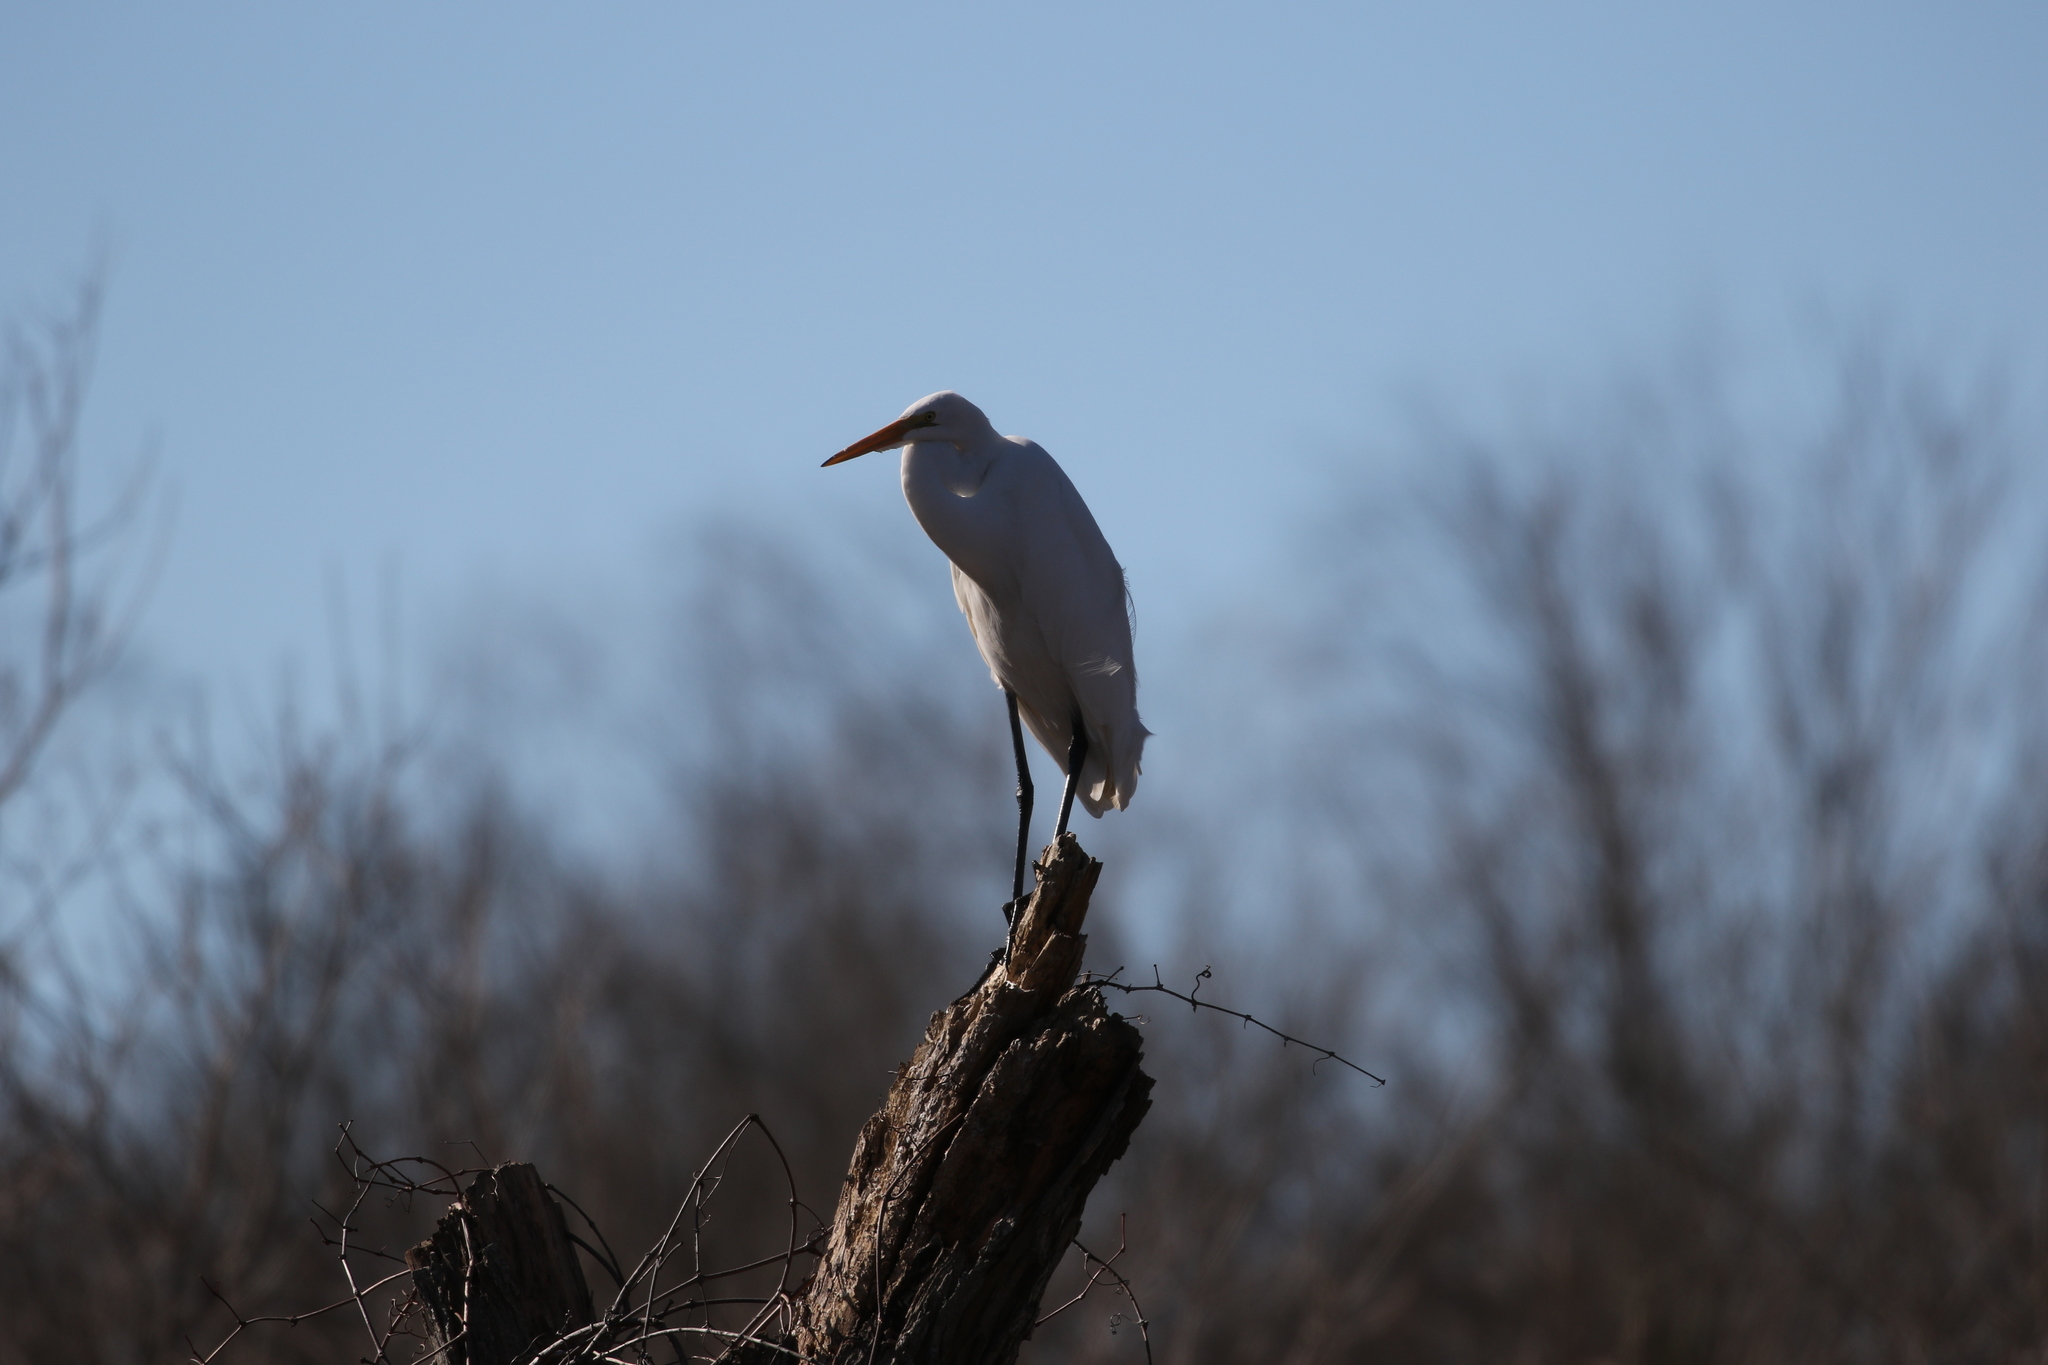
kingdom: Animalia
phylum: Chordata
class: Aves
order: Pelecaniformes
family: Ardeidae
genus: Ardea
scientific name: Ardea alba
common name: Great egret
